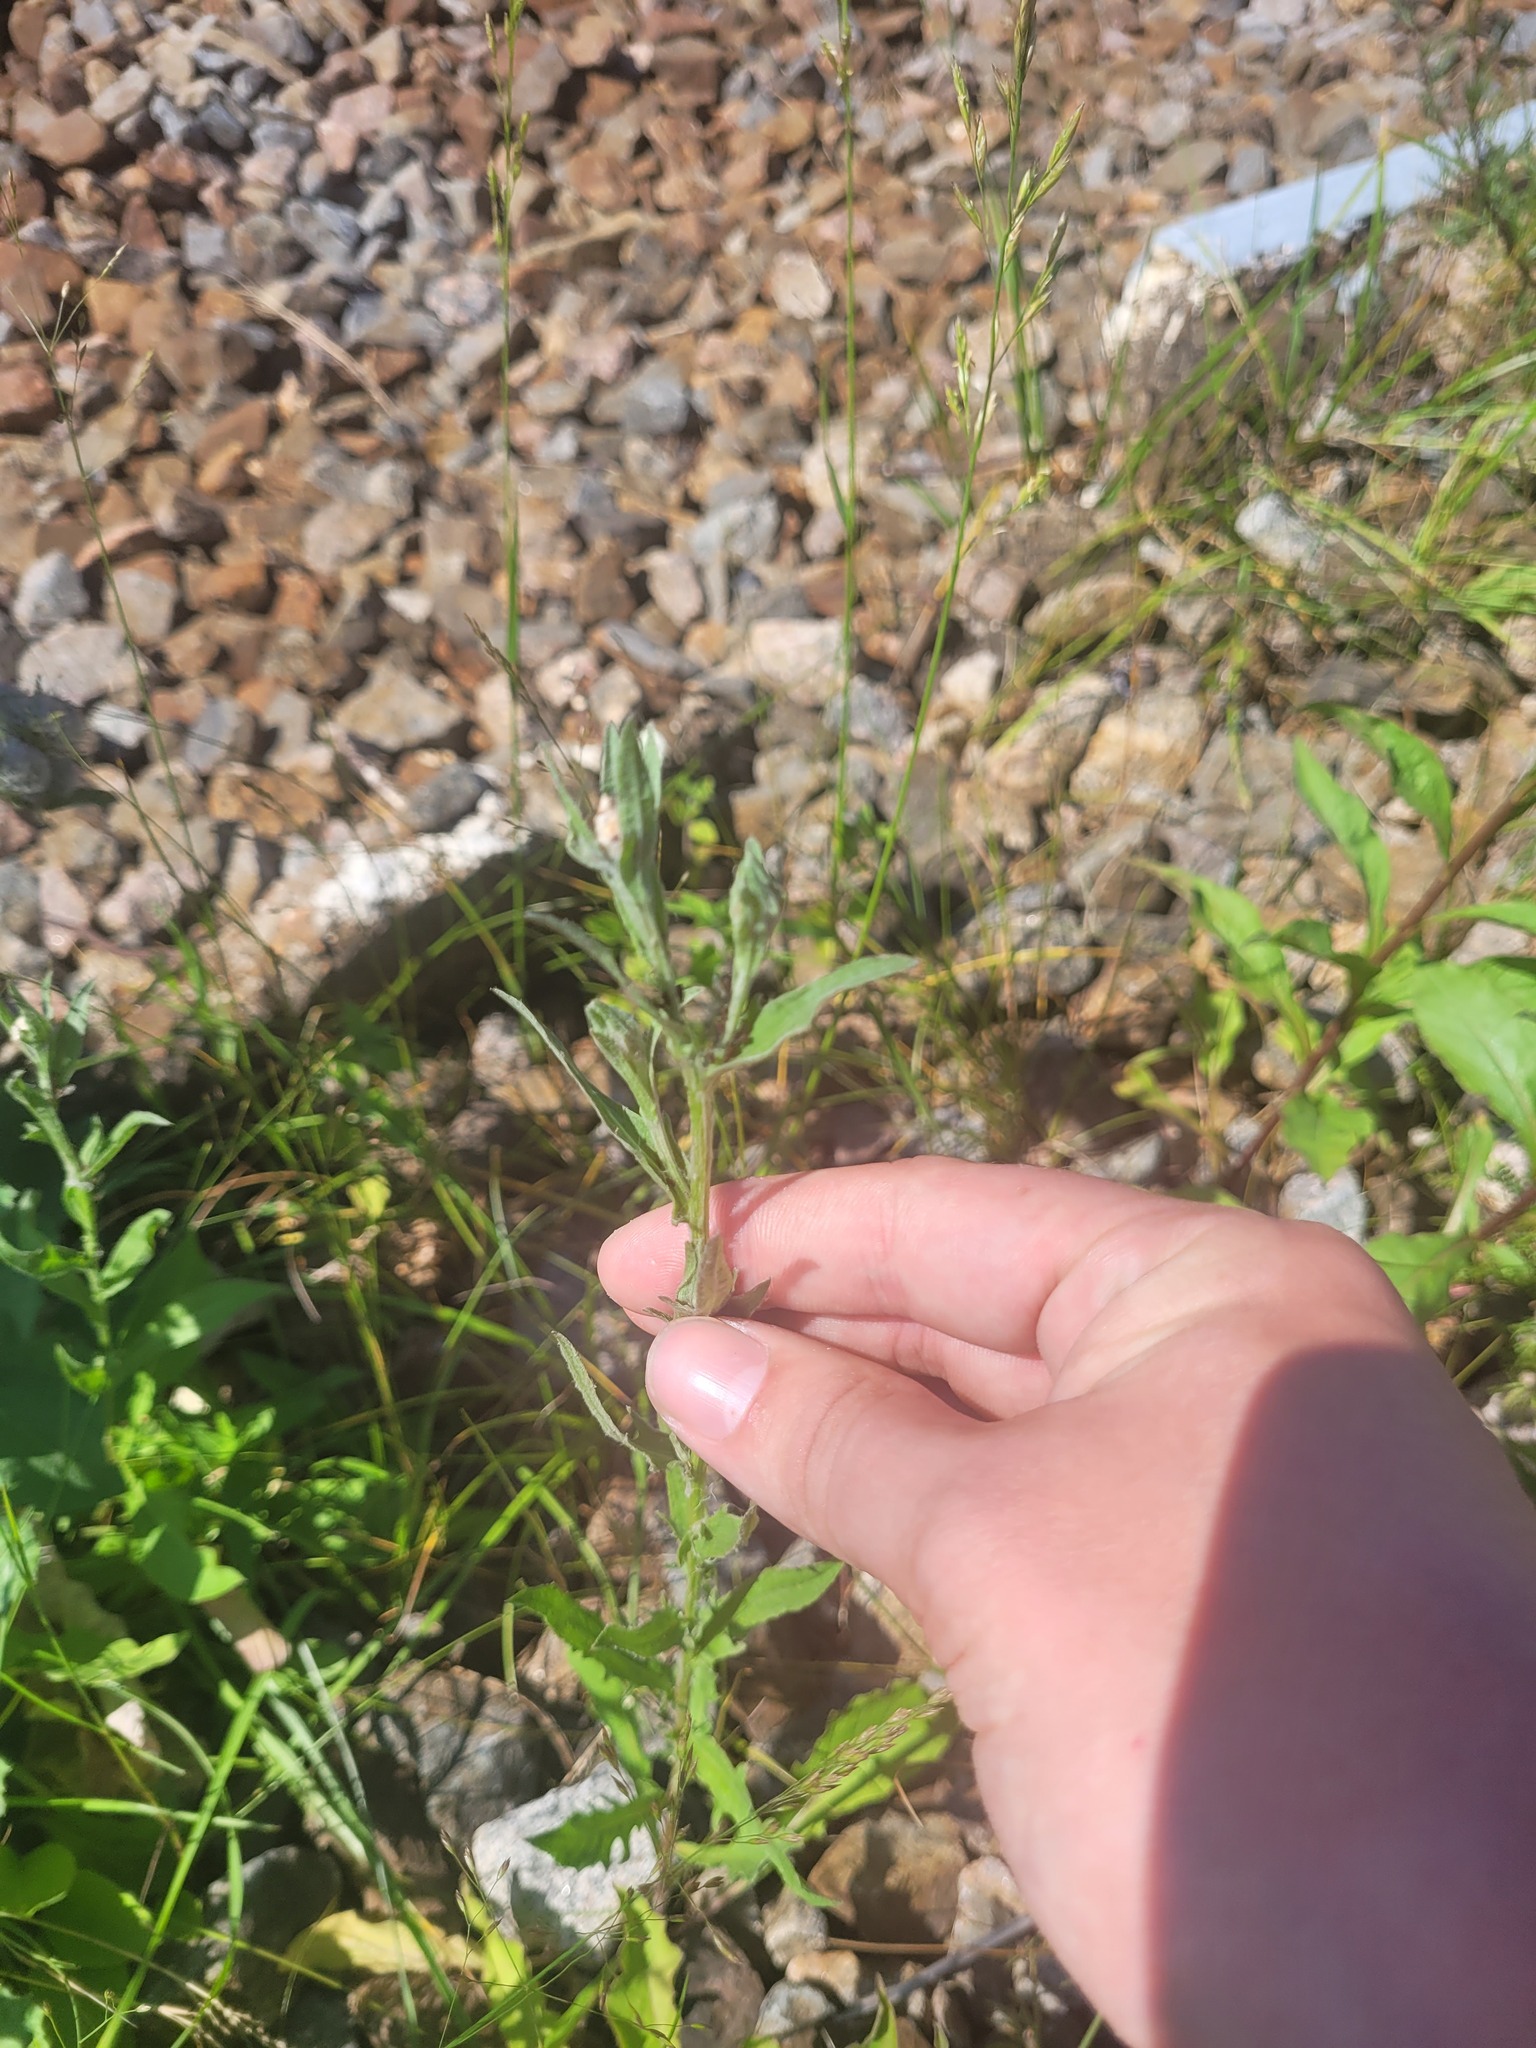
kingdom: Plantae
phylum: Tracheophyta
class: Magnoliopsida
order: Asterales
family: Asteraceae
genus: Centaurea
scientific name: Centaurea jacea
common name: Brown knapweed
